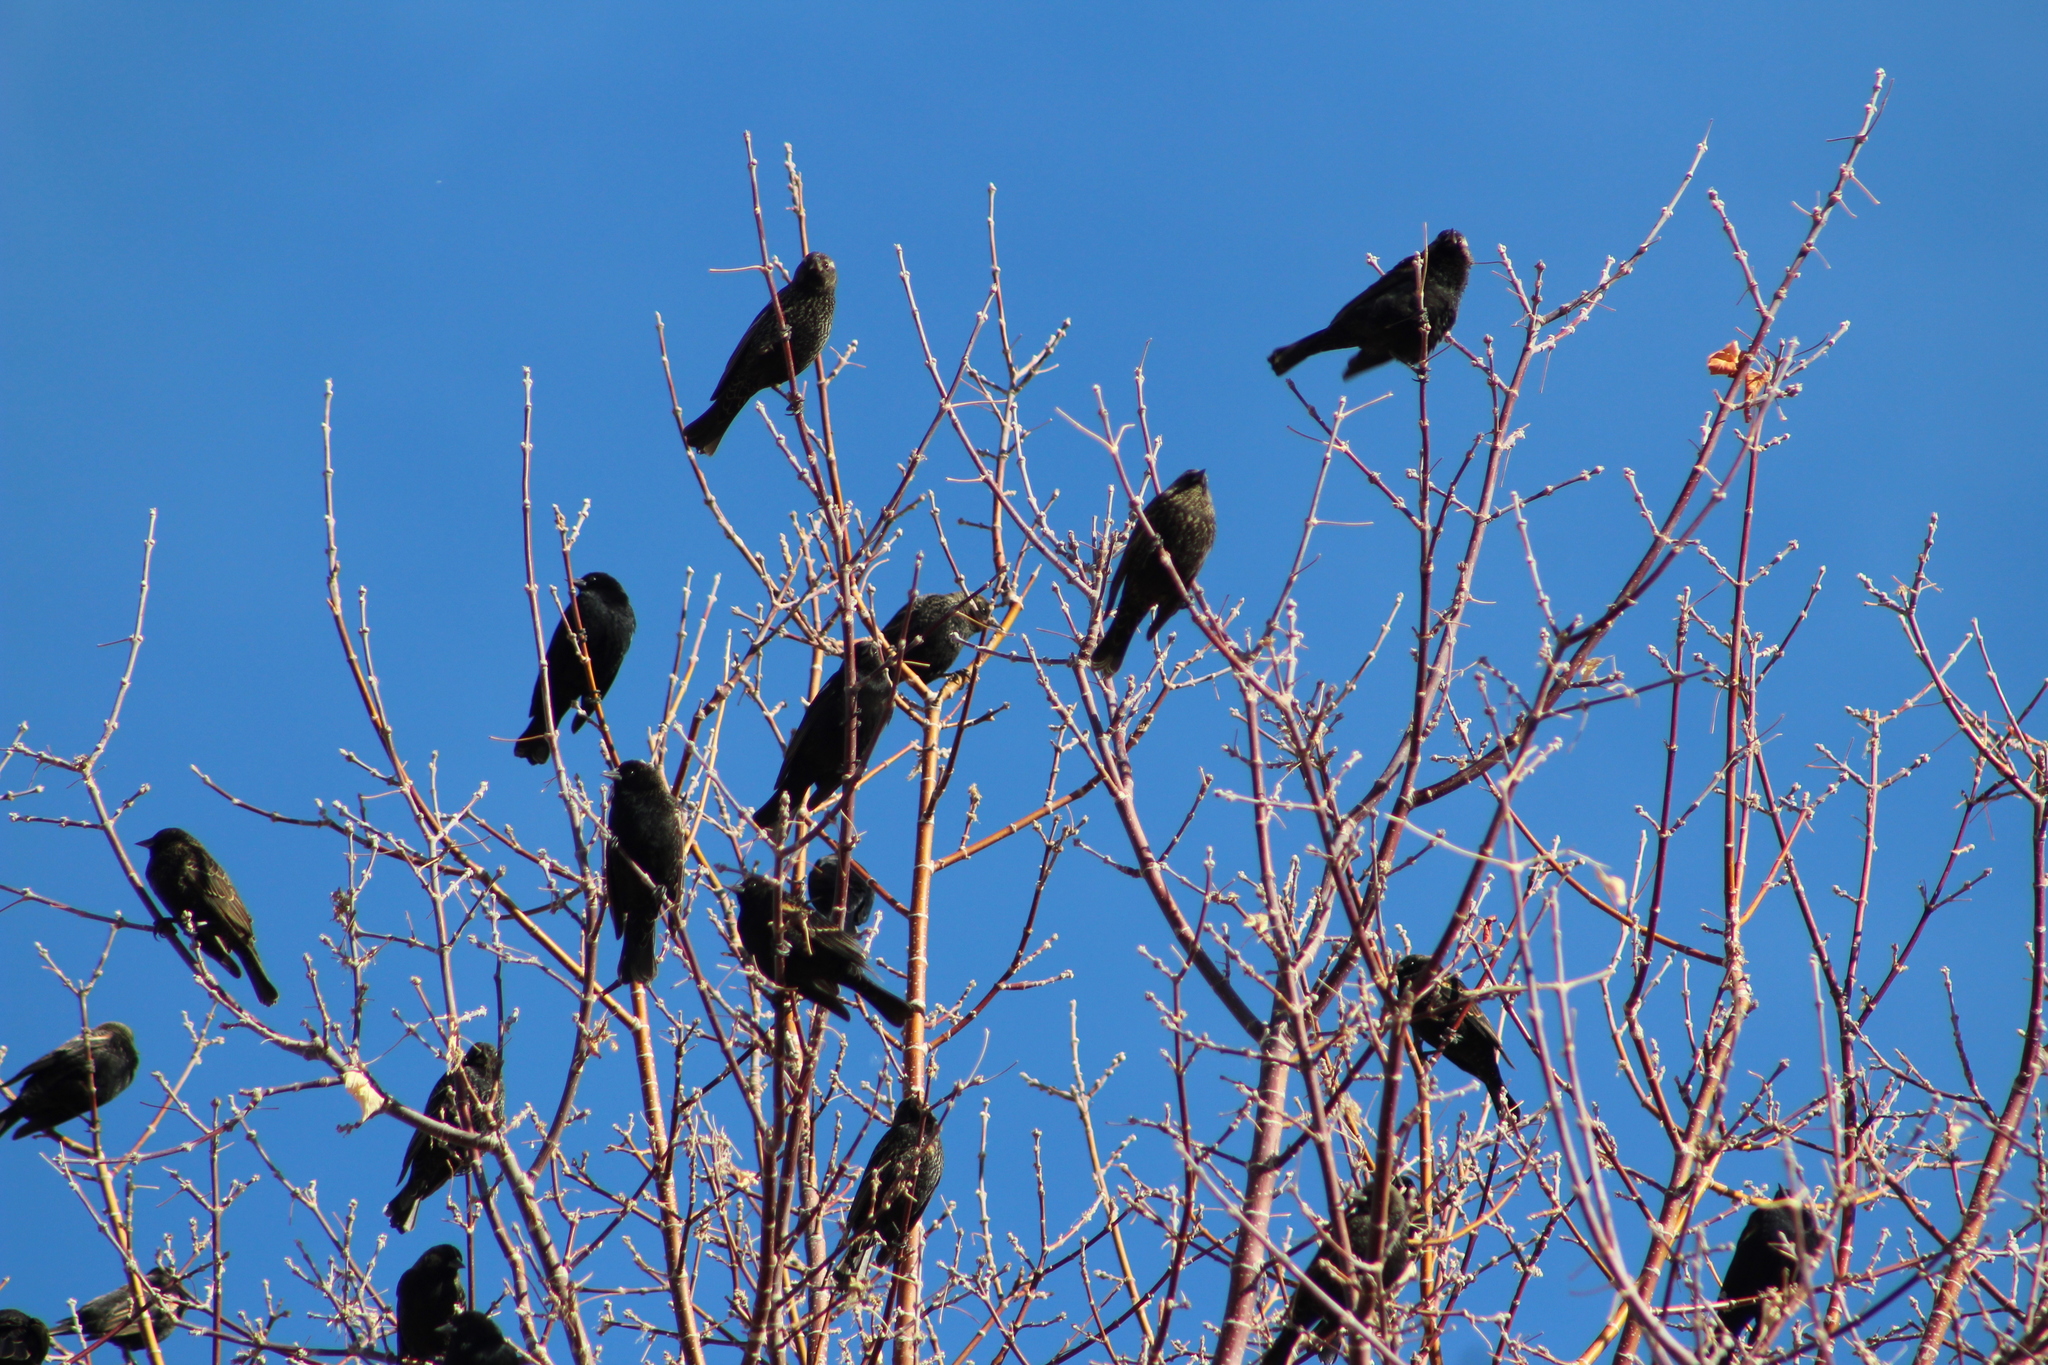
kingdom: Animalia
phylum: Chordata
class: Aves
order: Passeriformes
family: Icteridae
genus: Agelaius
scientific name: Agelaius phoeniceus
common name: Red-winged blackbird
